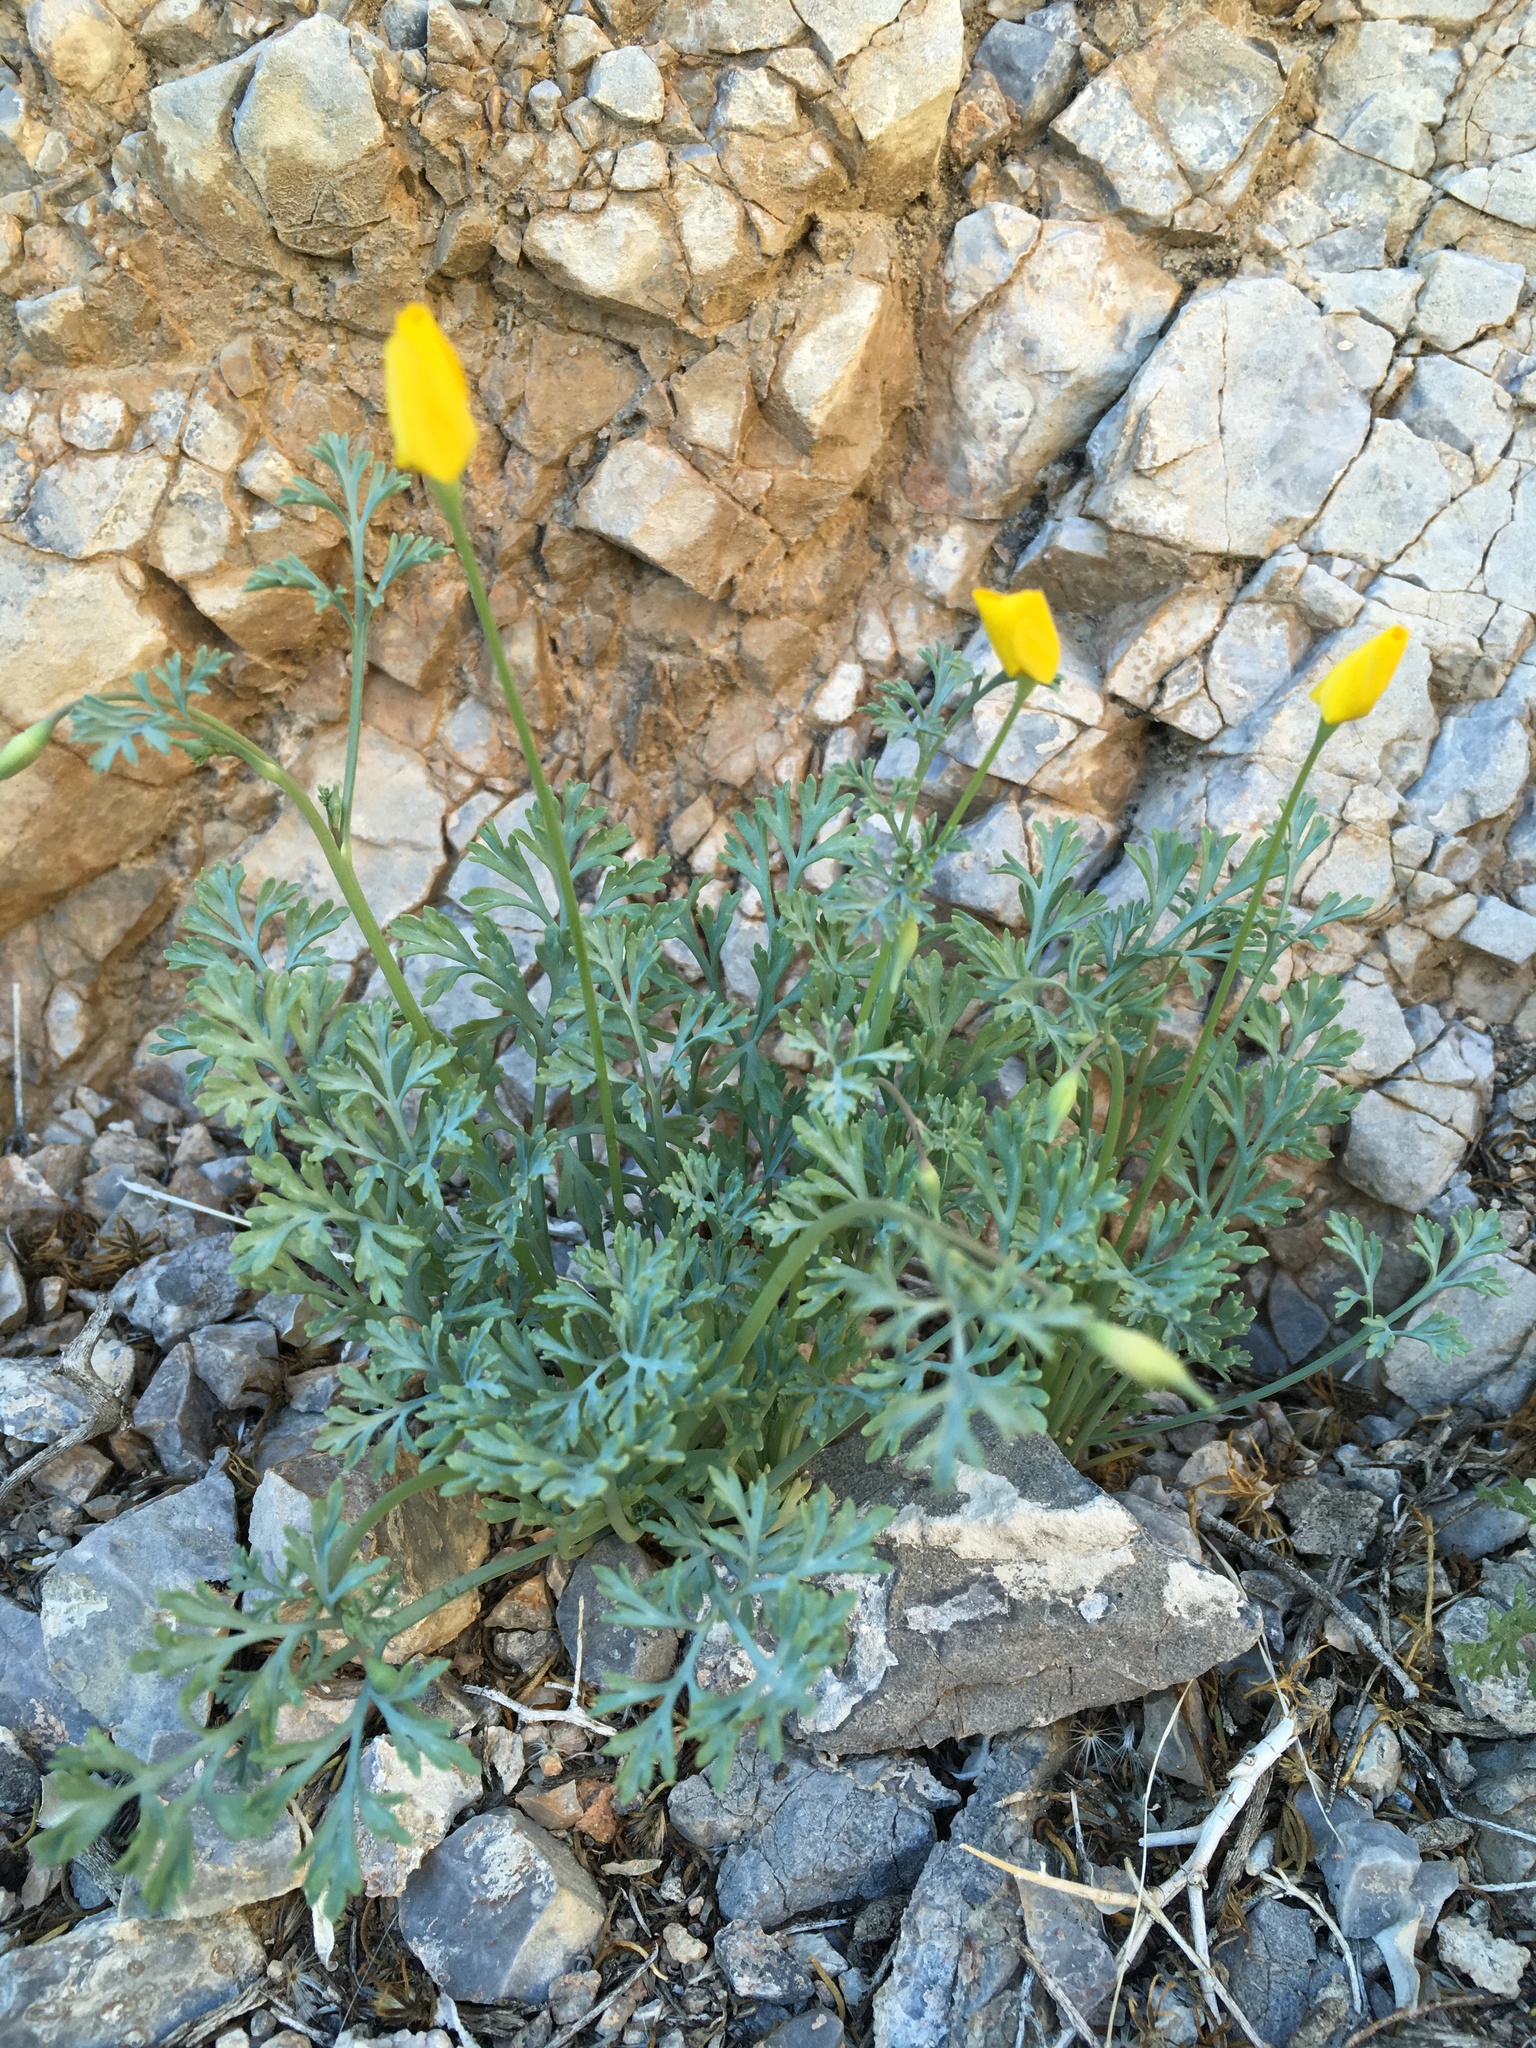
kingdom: Plantae
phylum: Tracheophyta
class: Magnoliopsida
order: Ranunculales
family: Papaveraceae
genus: Eschscholzia
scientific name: Eschscholzia minutiflora
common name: Small-flower california-poppy
